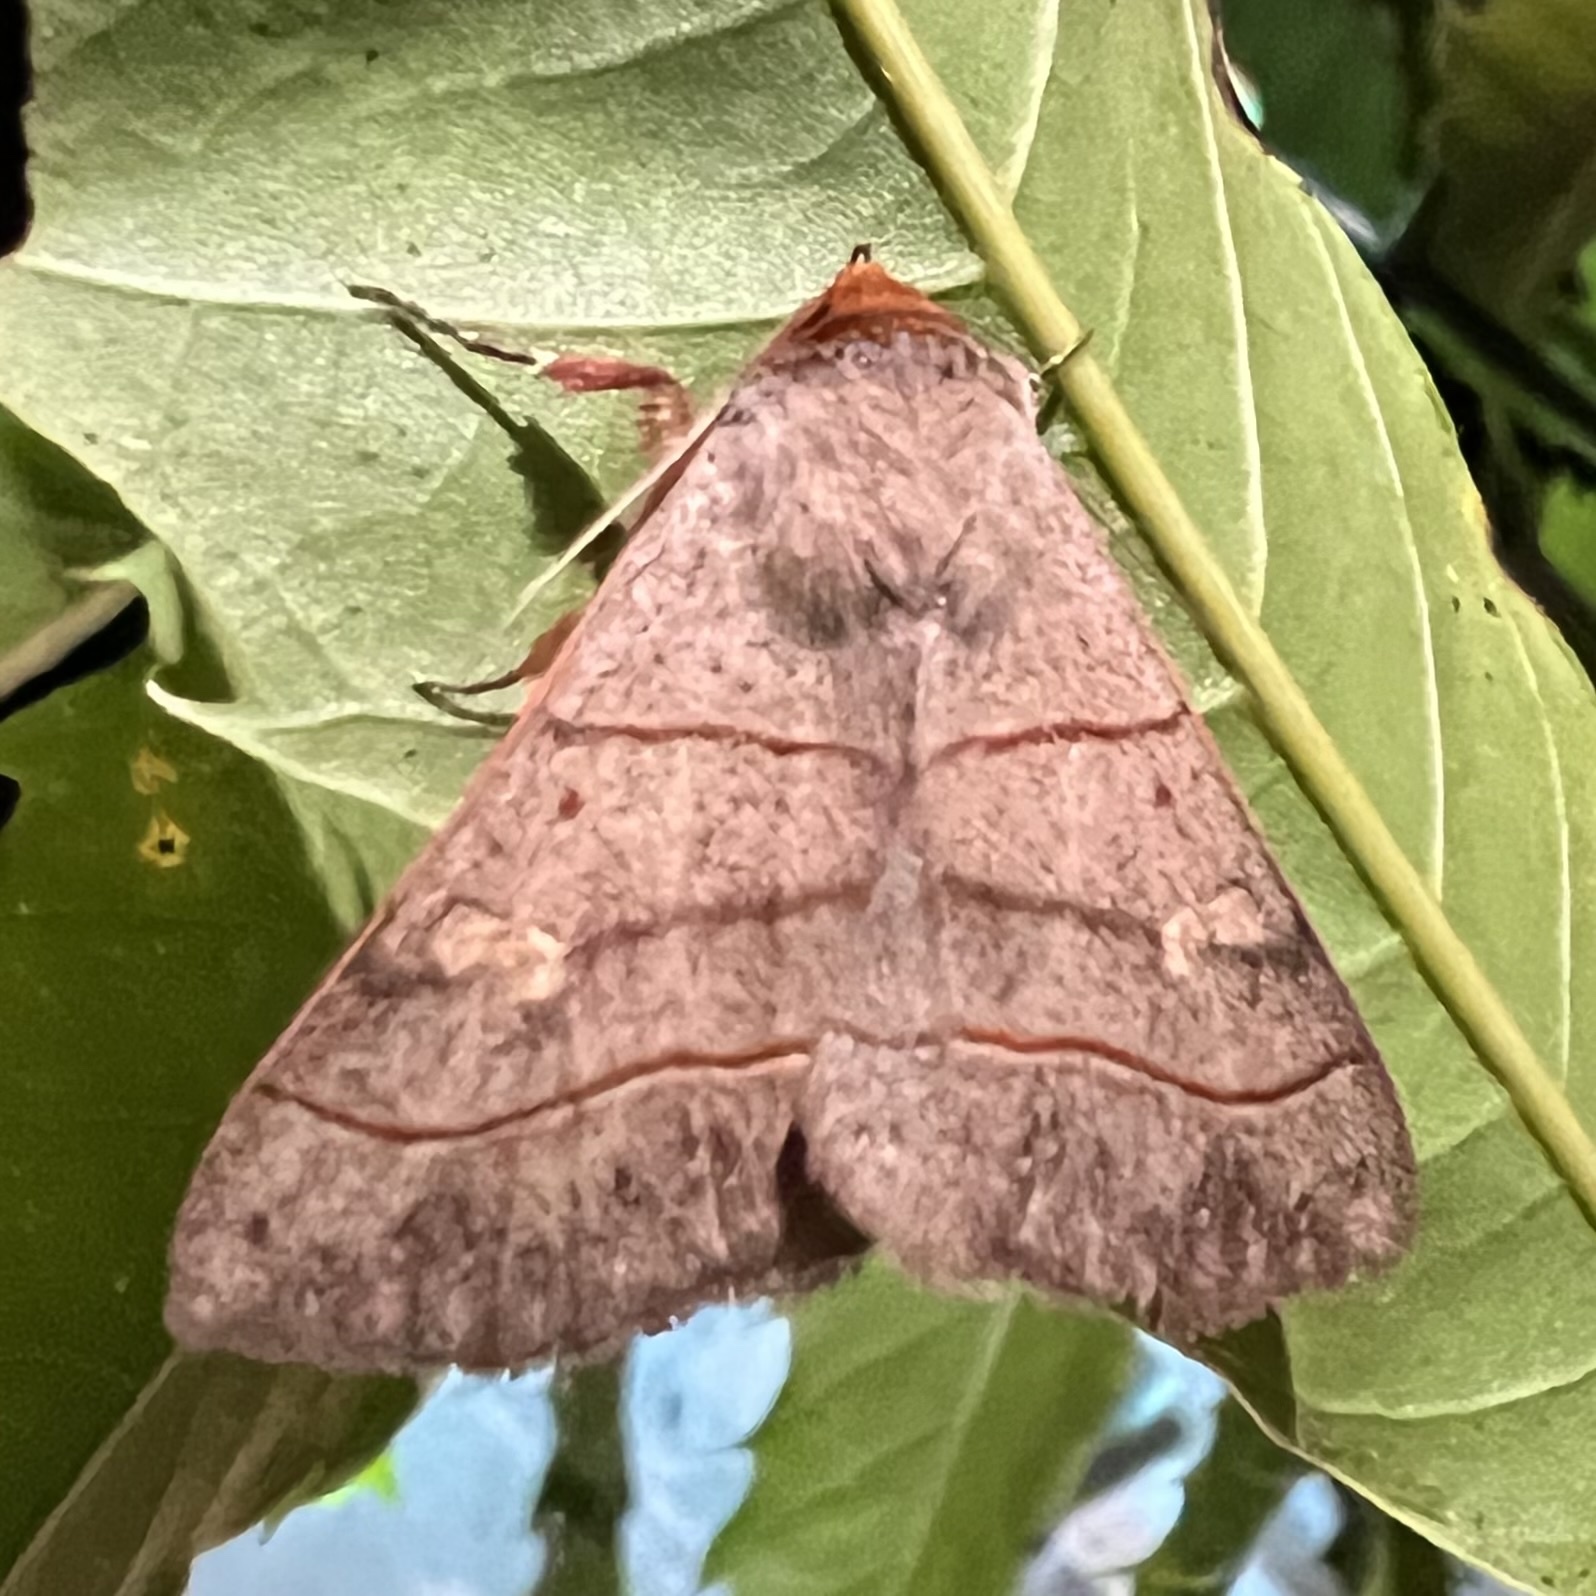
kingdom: Animalia
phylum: Arthropoda
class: Insecta
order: Lepidoptera
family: Erebidae
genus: Panopoda
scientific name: Panopoda rufimargo
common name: Red-lined panopoda moth
